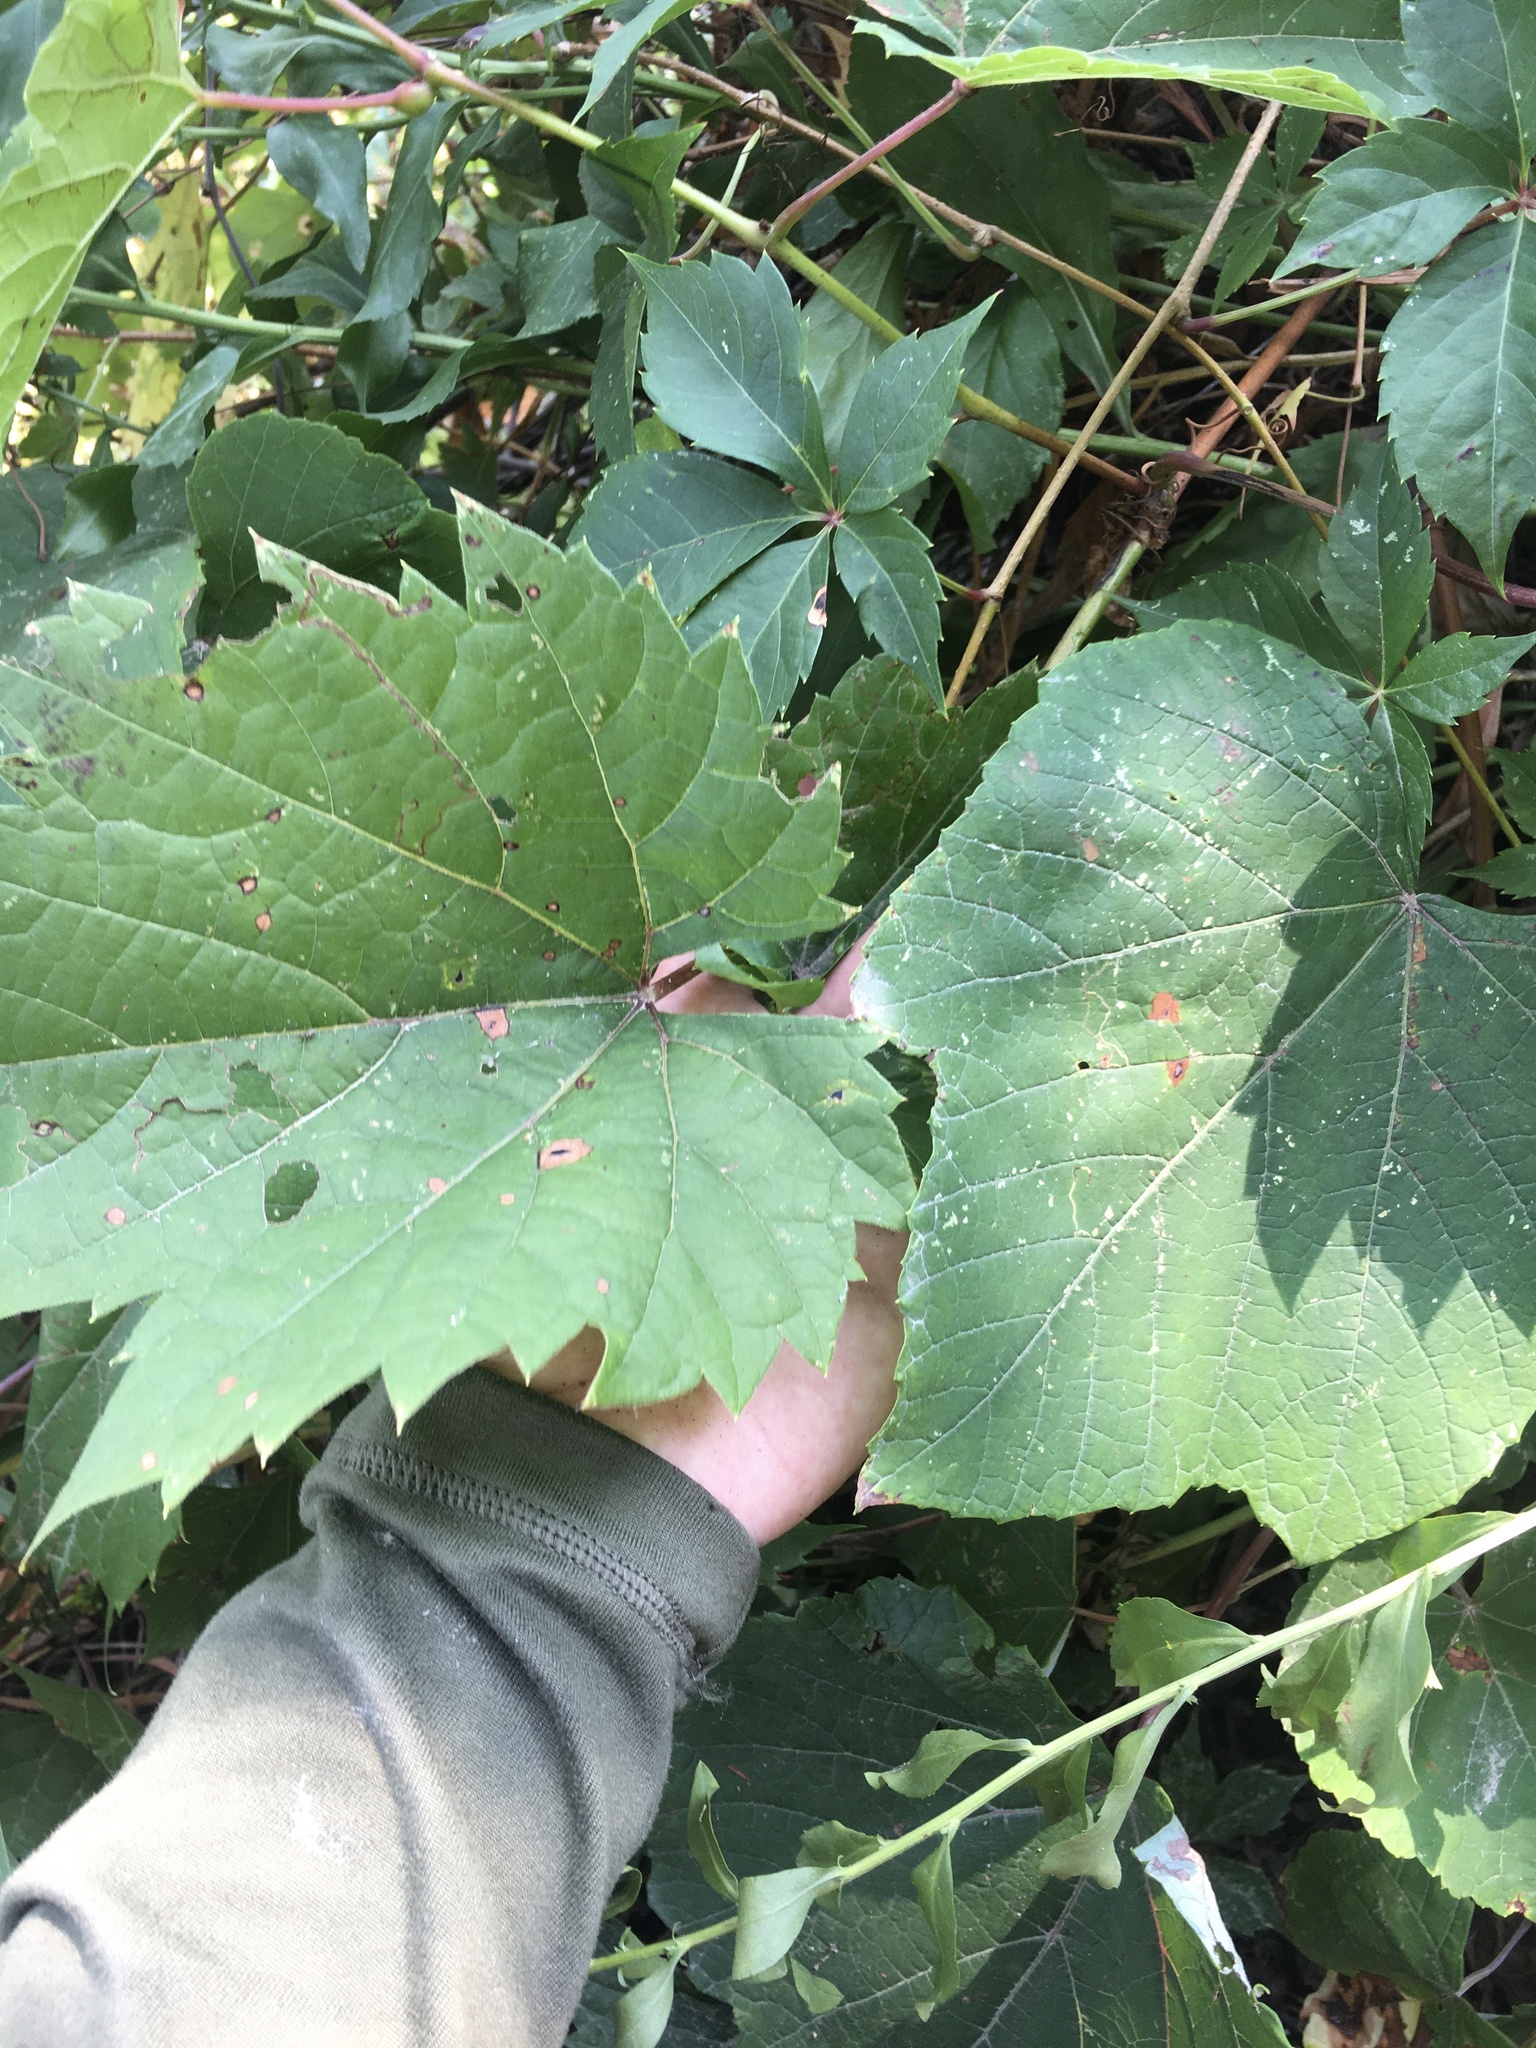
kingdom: Plantae
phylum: Tracheophyta
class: Magnoliopsida
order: Vitales
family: Vitaceae
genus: Vitis
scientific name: Vitis riparia
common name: Frost grape
